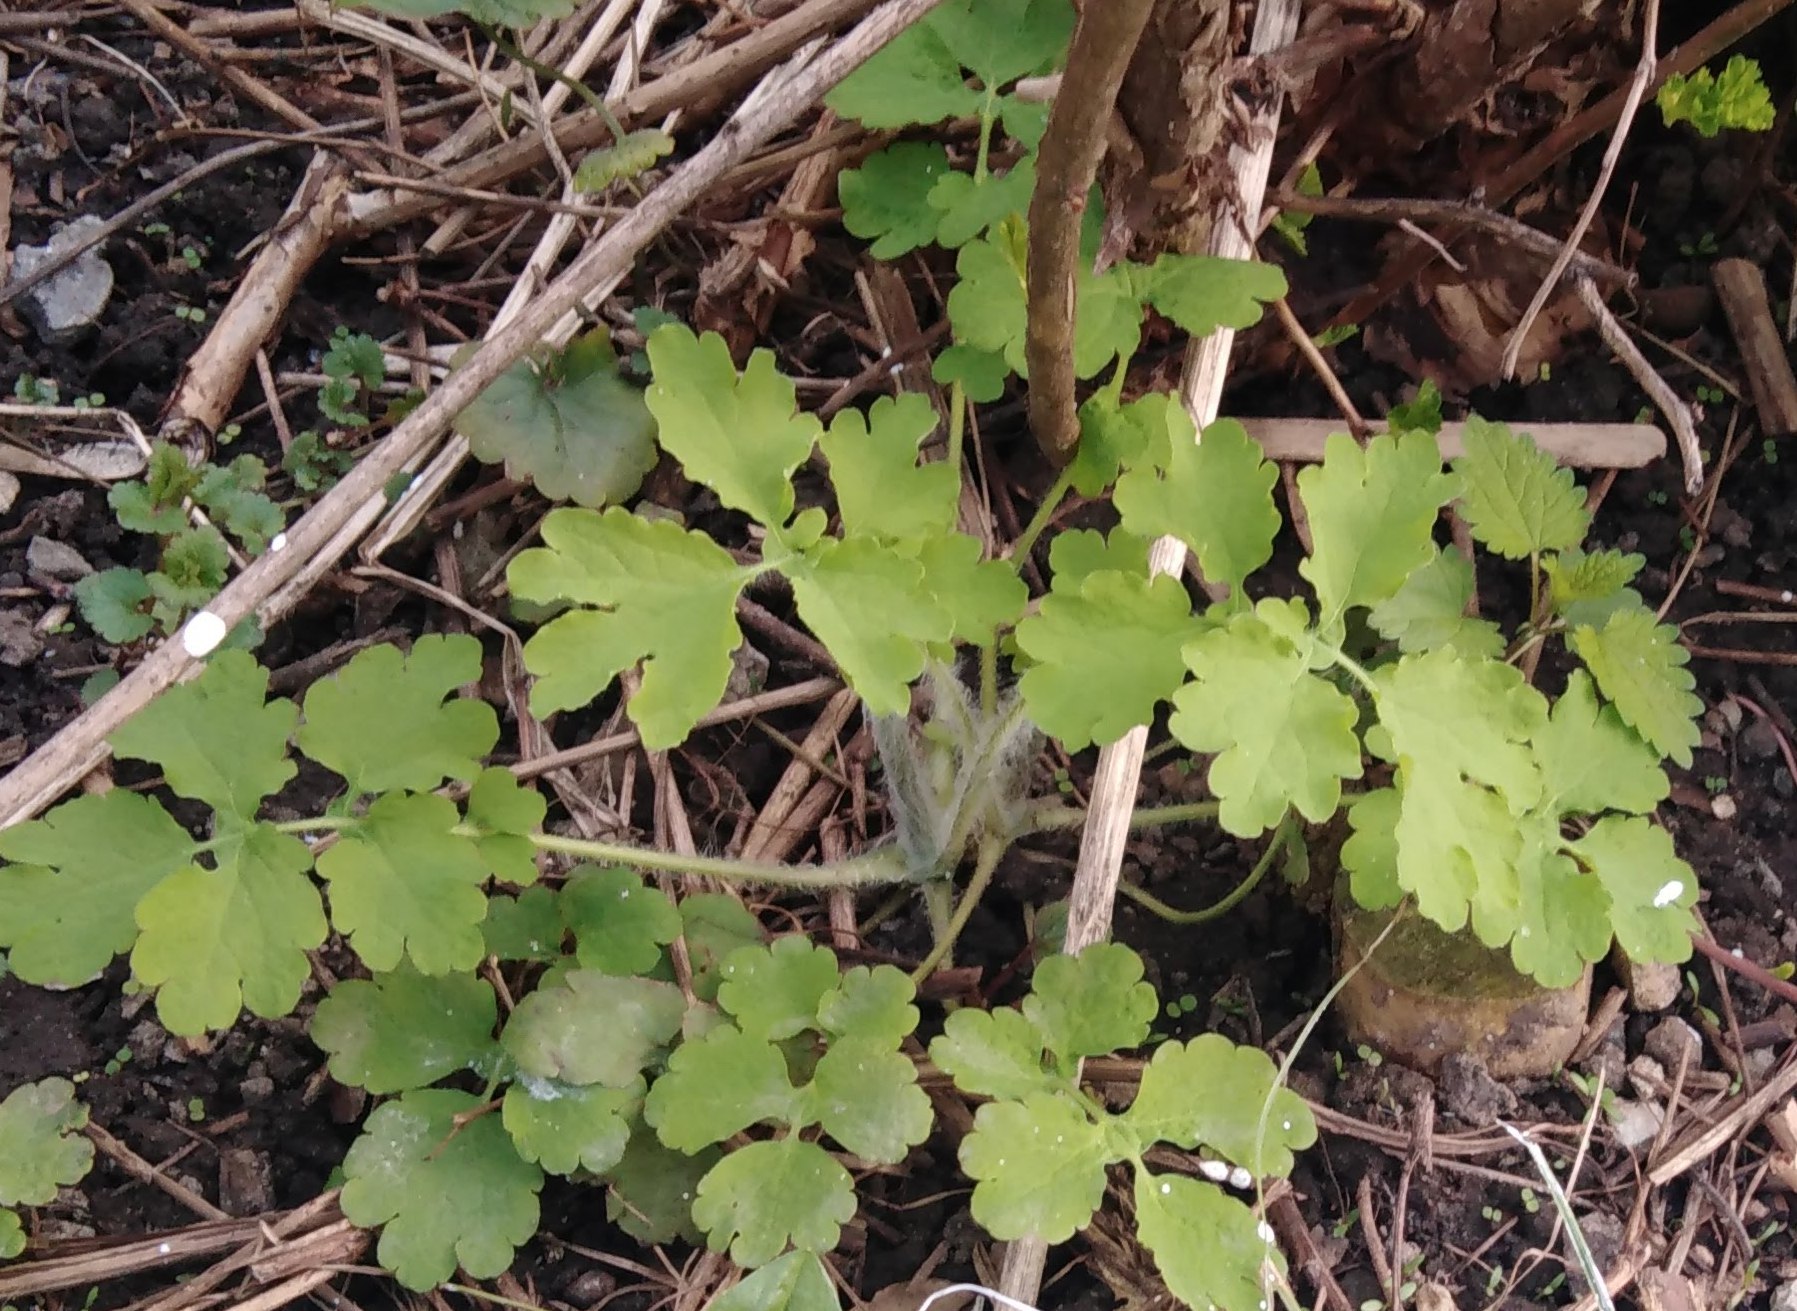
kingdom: Plantae
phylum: Tracheophyta
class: Magnoliopsida
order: Ranunculales
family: Papaveraceae
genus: Chelidonium
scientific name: Chelidonium majus
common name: Greater celandine
